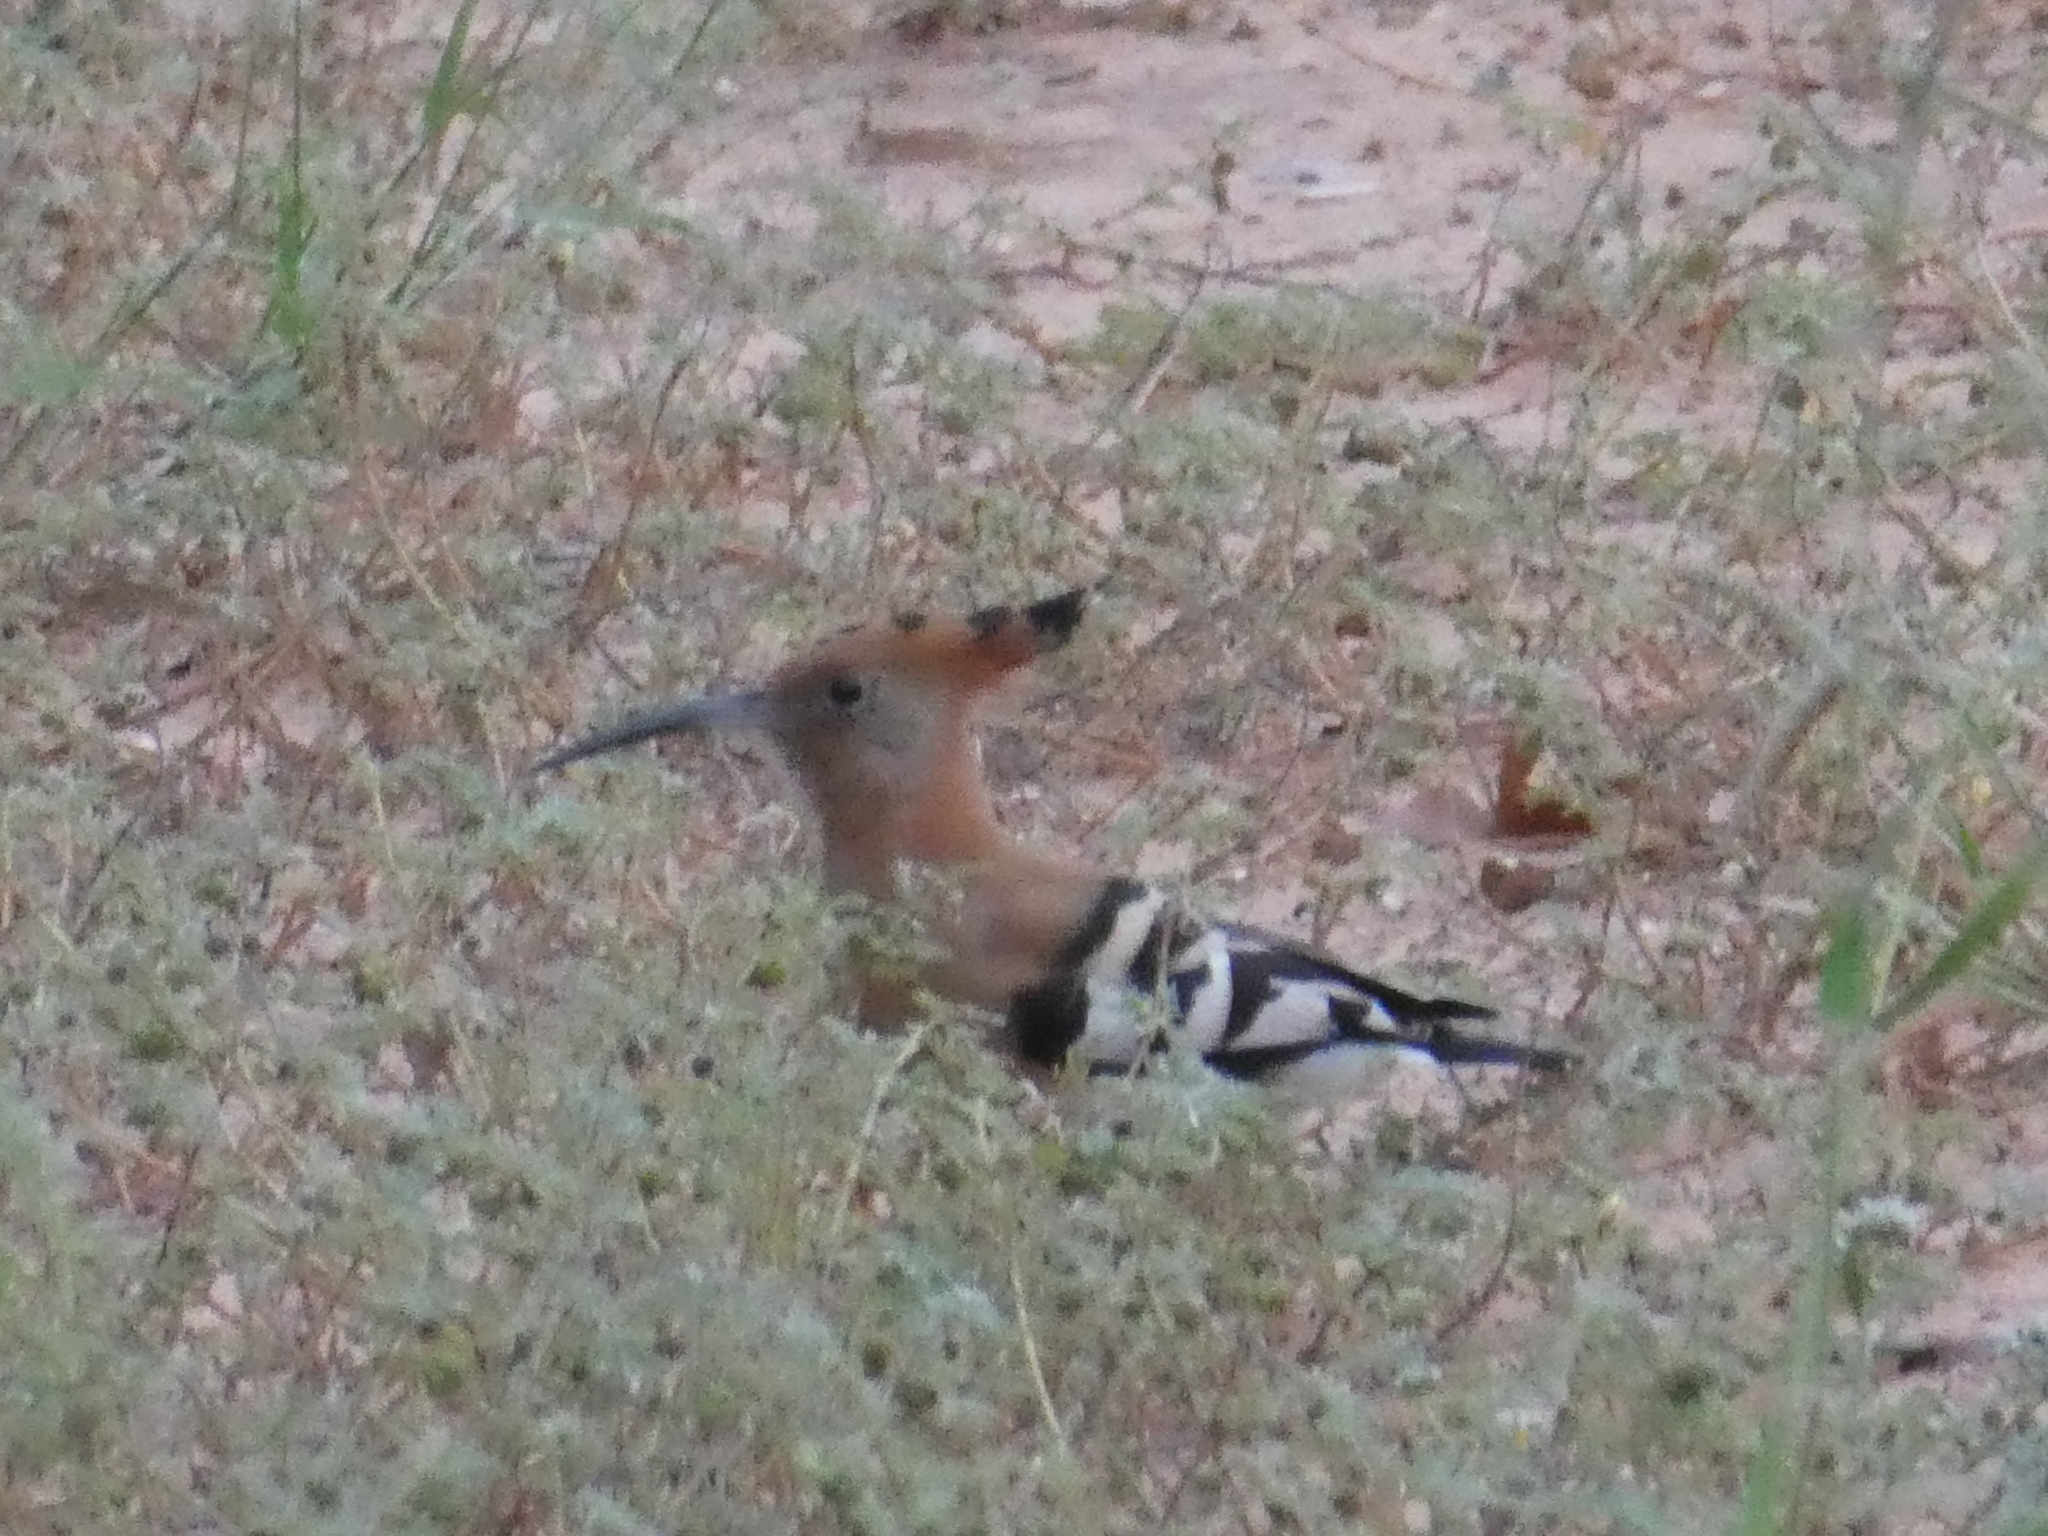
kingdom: Animalia
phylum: Chordata
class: Aves
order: Bucerotiformes
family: Upupidae
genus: Upupa
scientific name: Upupa africana
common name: African hoopoe
